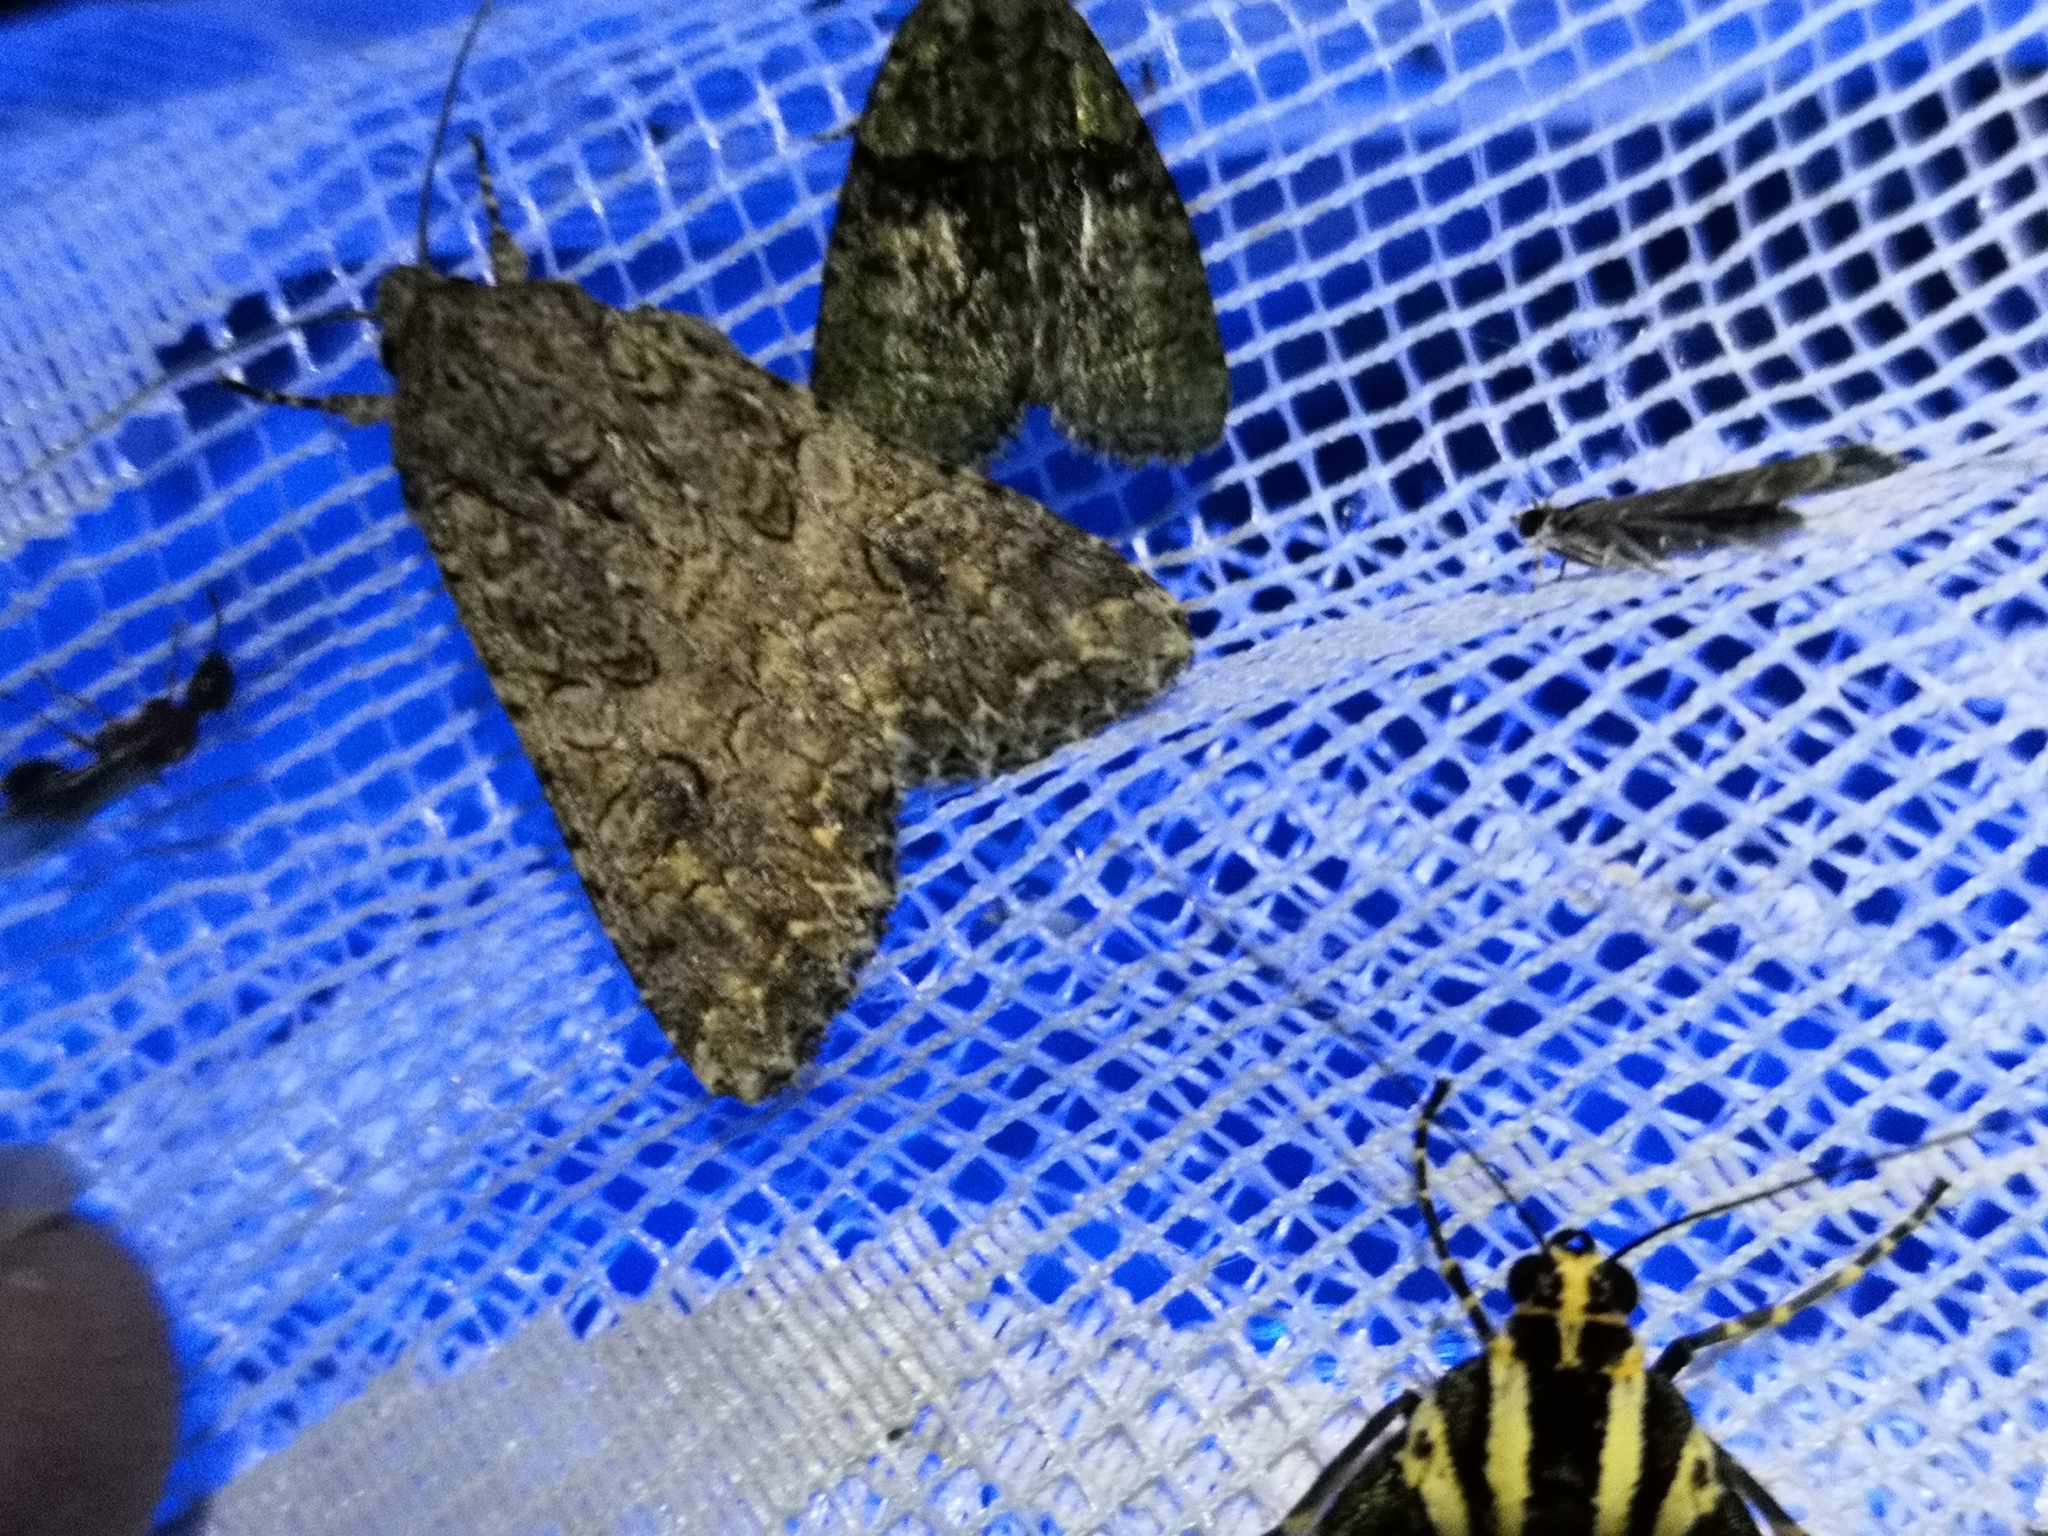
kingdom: Animalia
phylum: Arthropoda
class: Insecta
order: Lepidoptera
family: Noctuidae
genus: Anarta
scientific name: Anarta trifolii
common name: Clover cutworm moth
